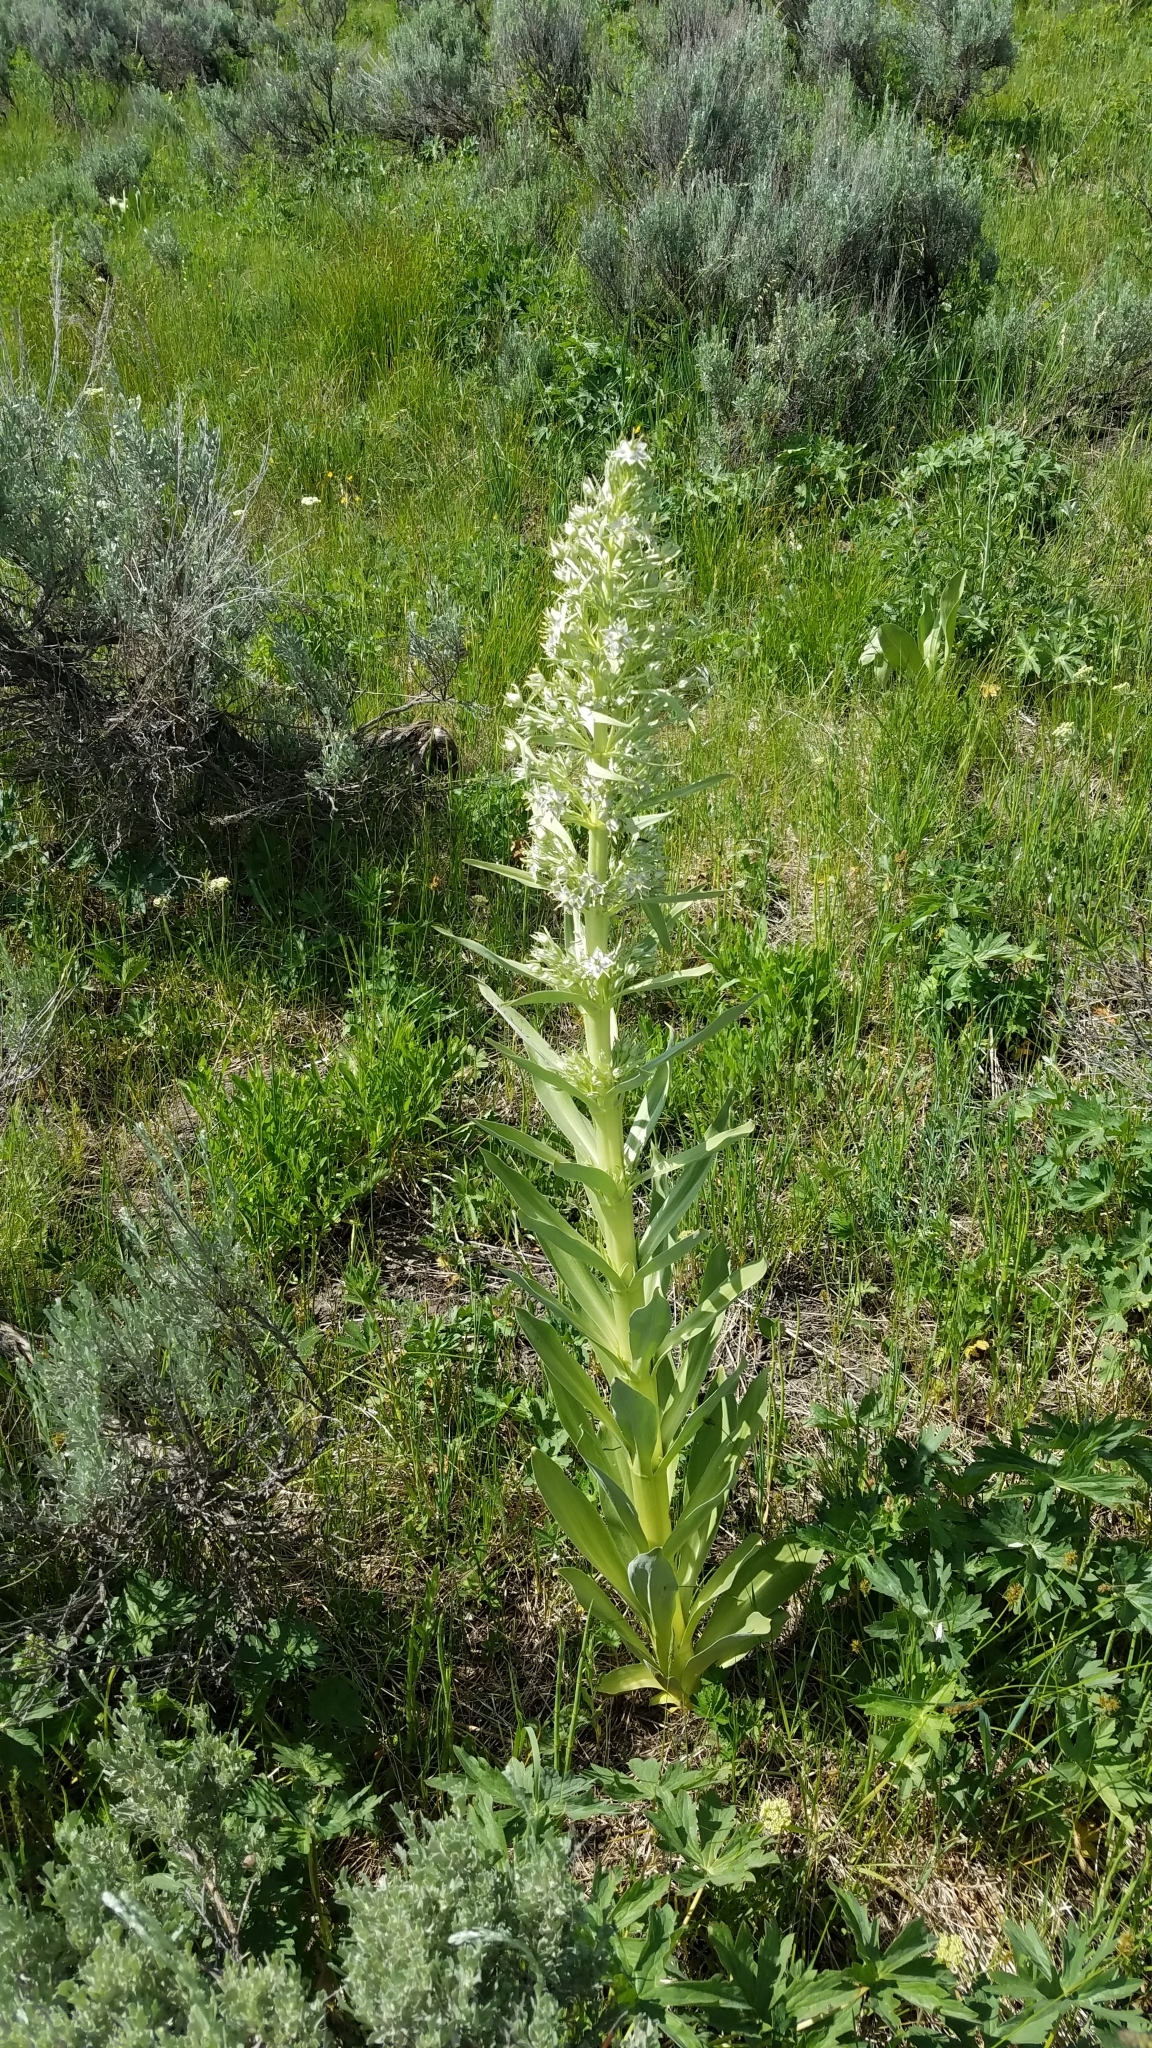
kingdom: Plantae
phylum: Tracheophyta
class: Magnoliopsida
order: Gentianales
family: Gentianaceae
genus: Frasera
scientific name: Frasera speciosa
